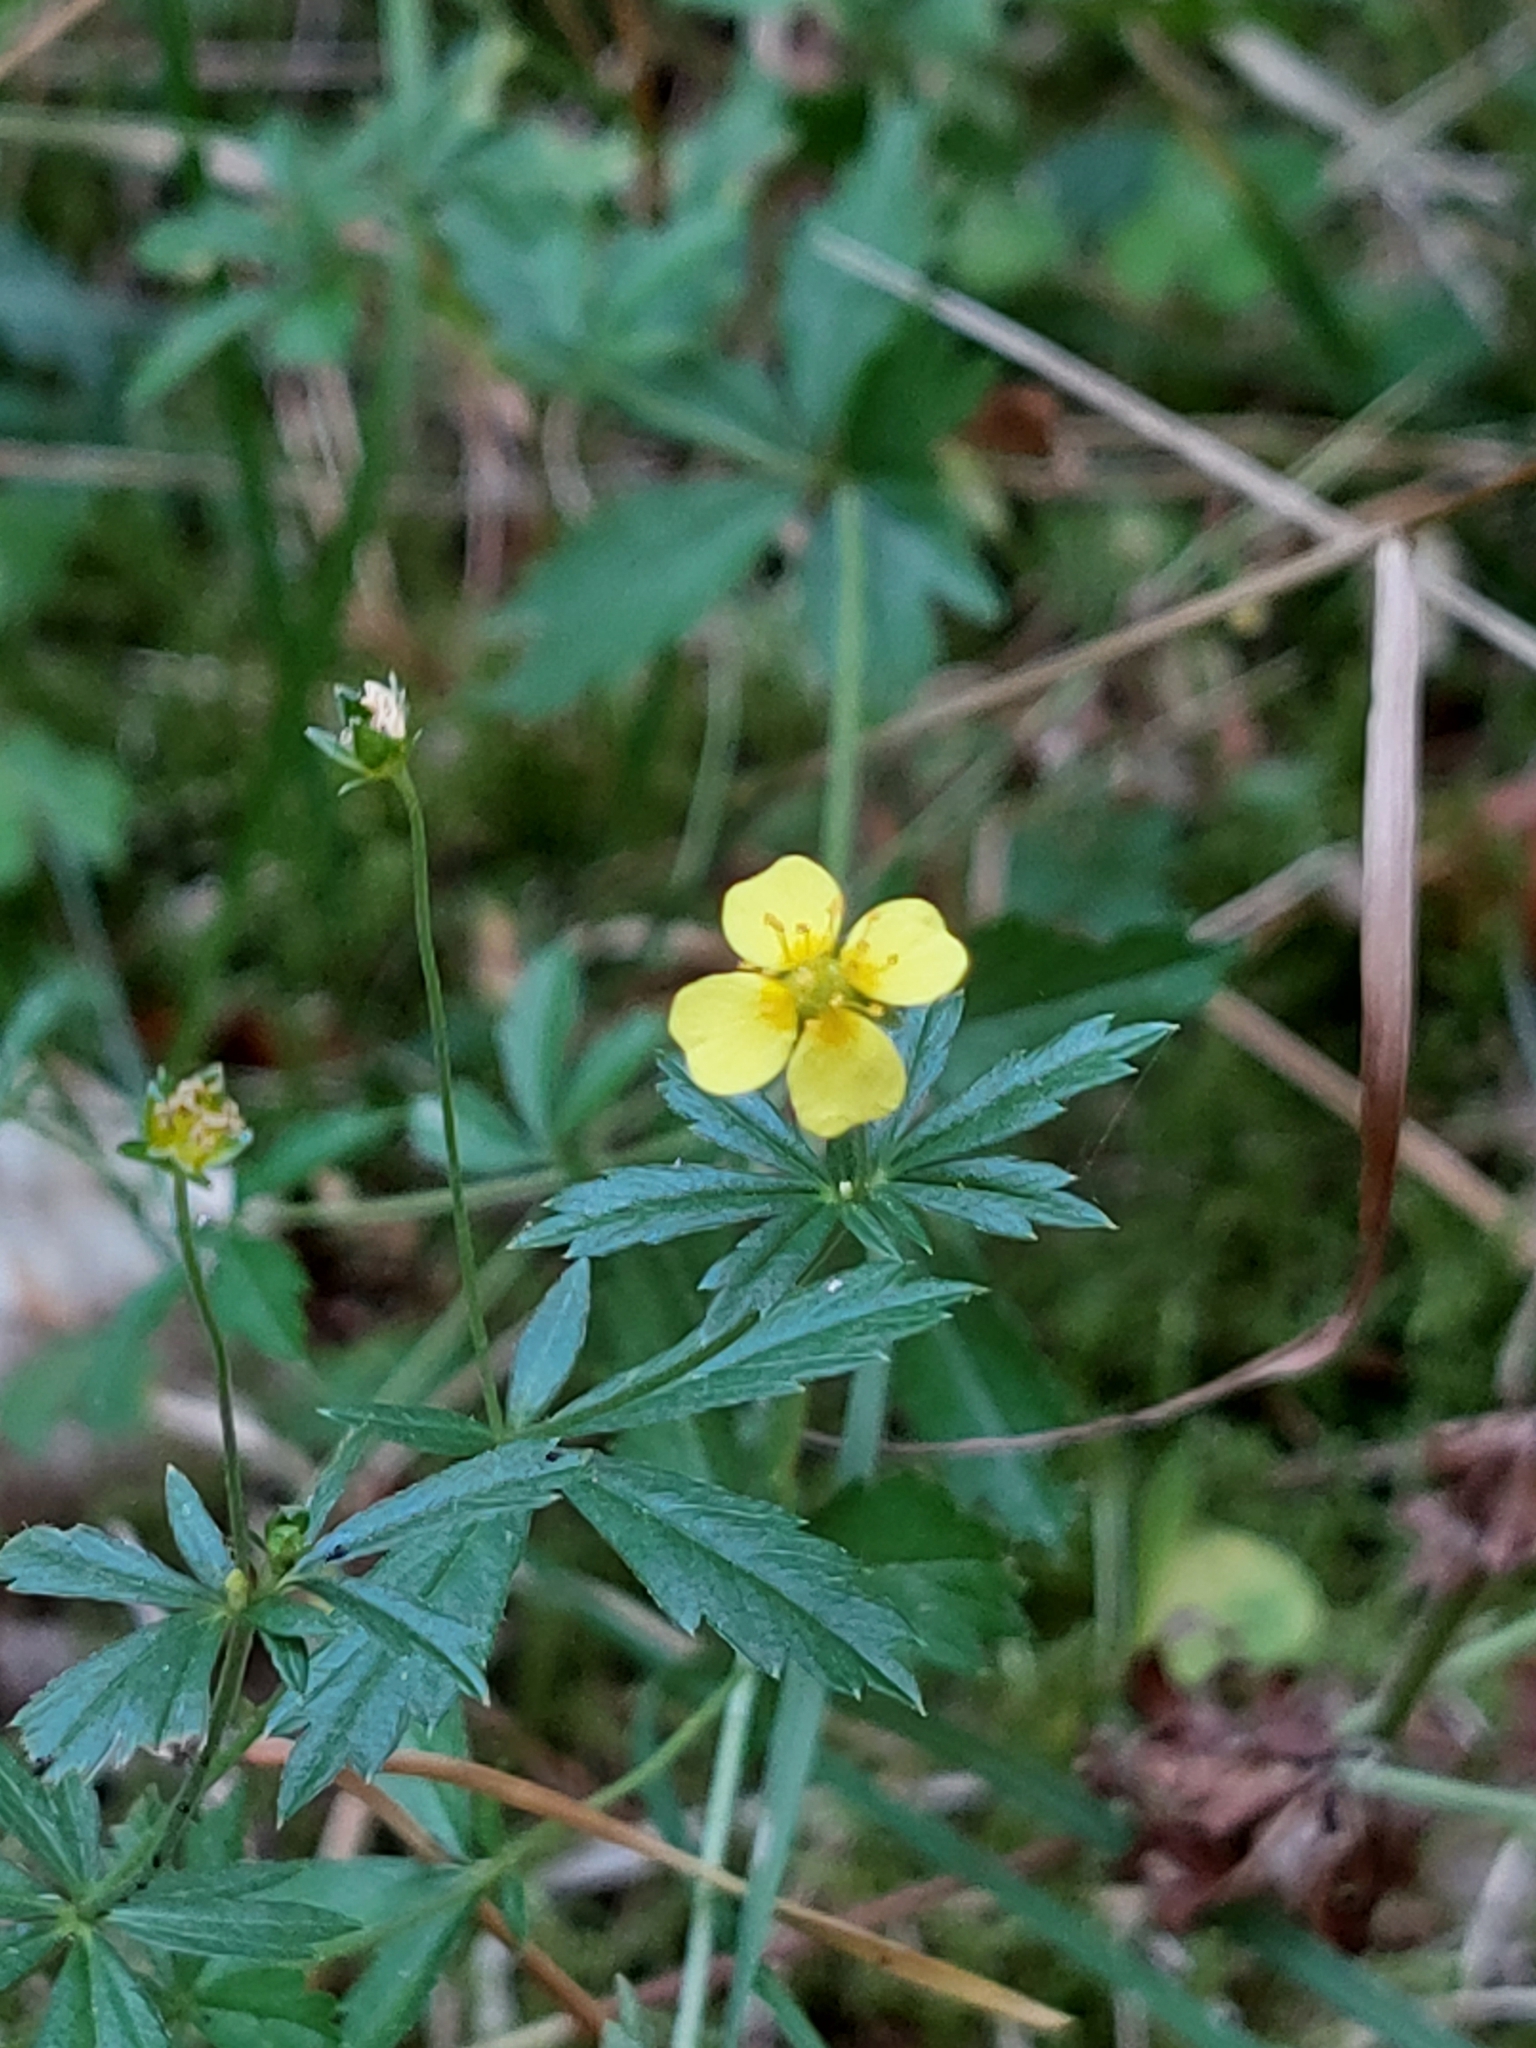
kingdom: Plantae
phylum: Tracheophyta
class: Magnoliopsida
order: Rosales
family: Rosaceae
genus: Potentilla
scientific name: Potentilla erecta
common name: Tormentil
